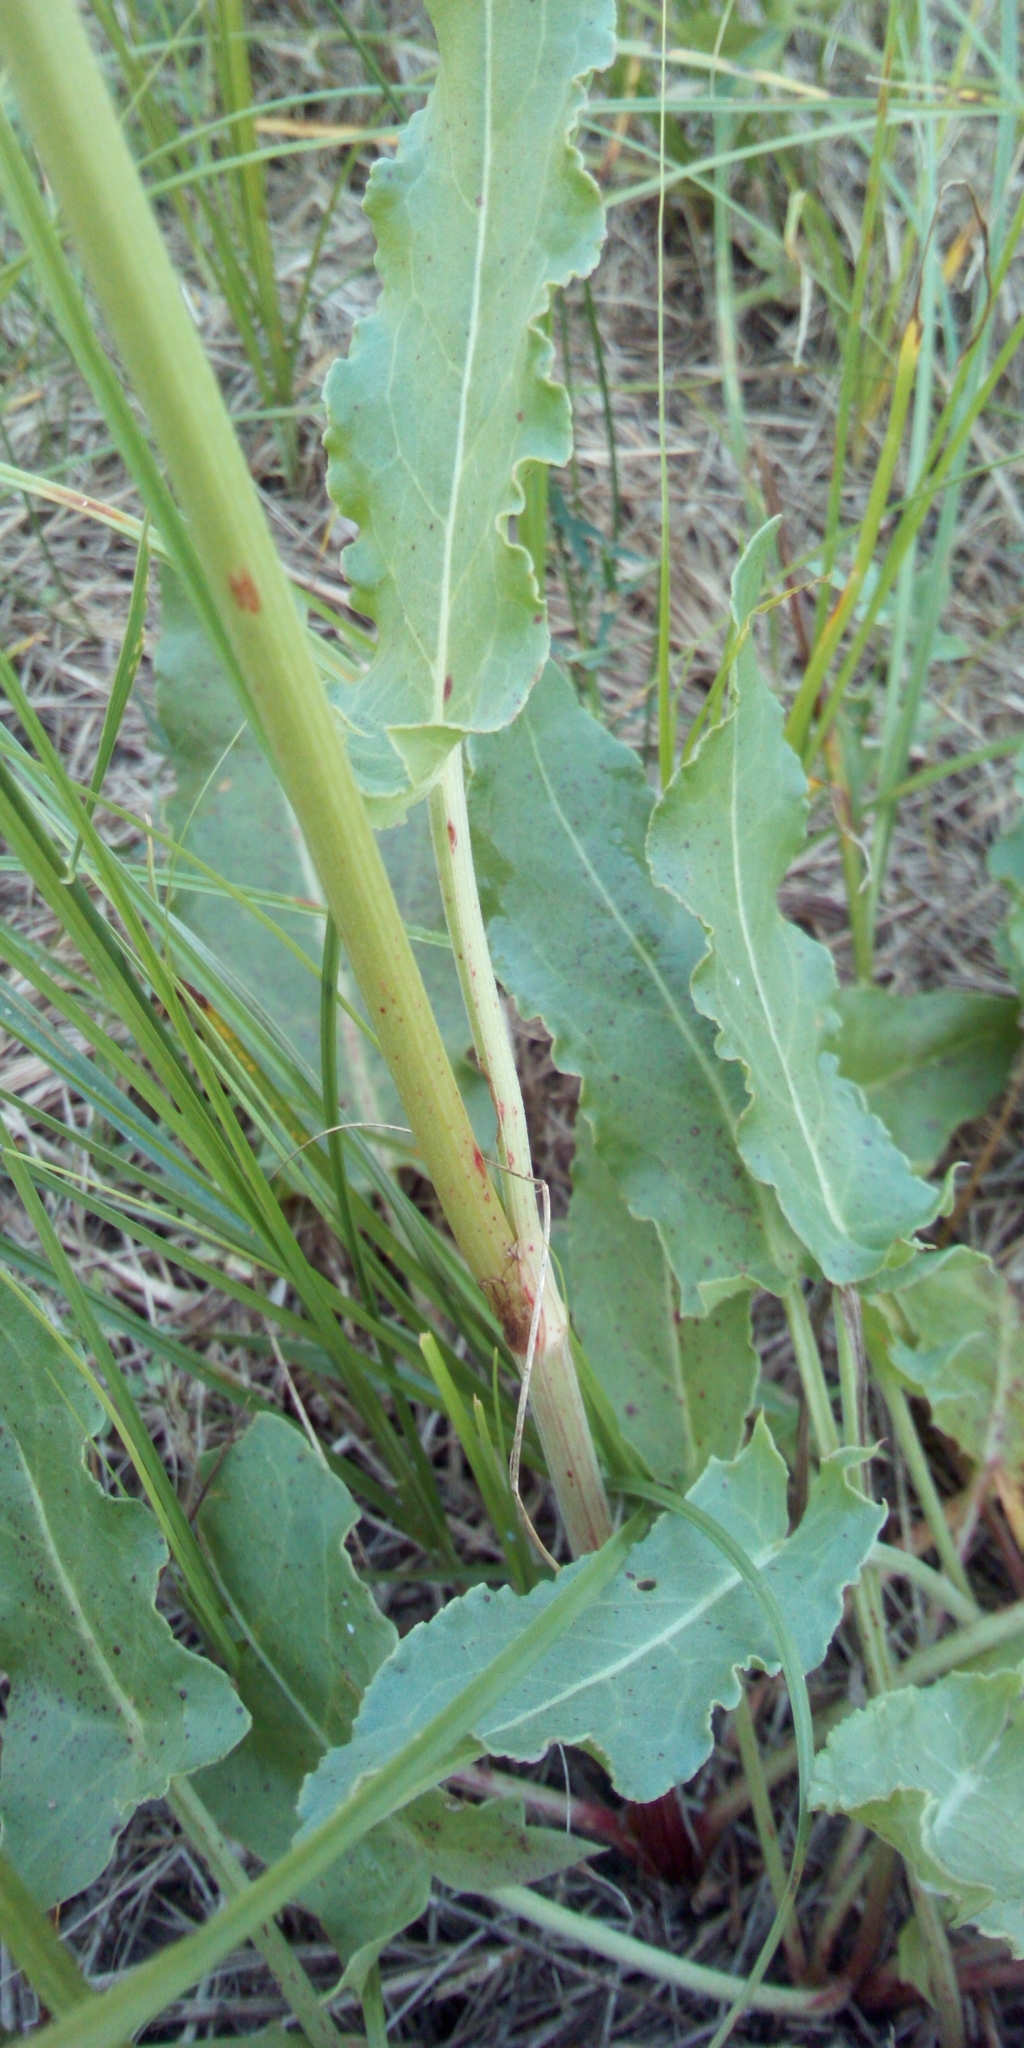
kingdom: Plantae
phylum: Tracheophyta
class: Magnoliopsida
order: Caryophyllales
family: Polygonaceae
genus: Rumex
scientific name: Rumex thyrsiflorus
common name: Garden sorrel
